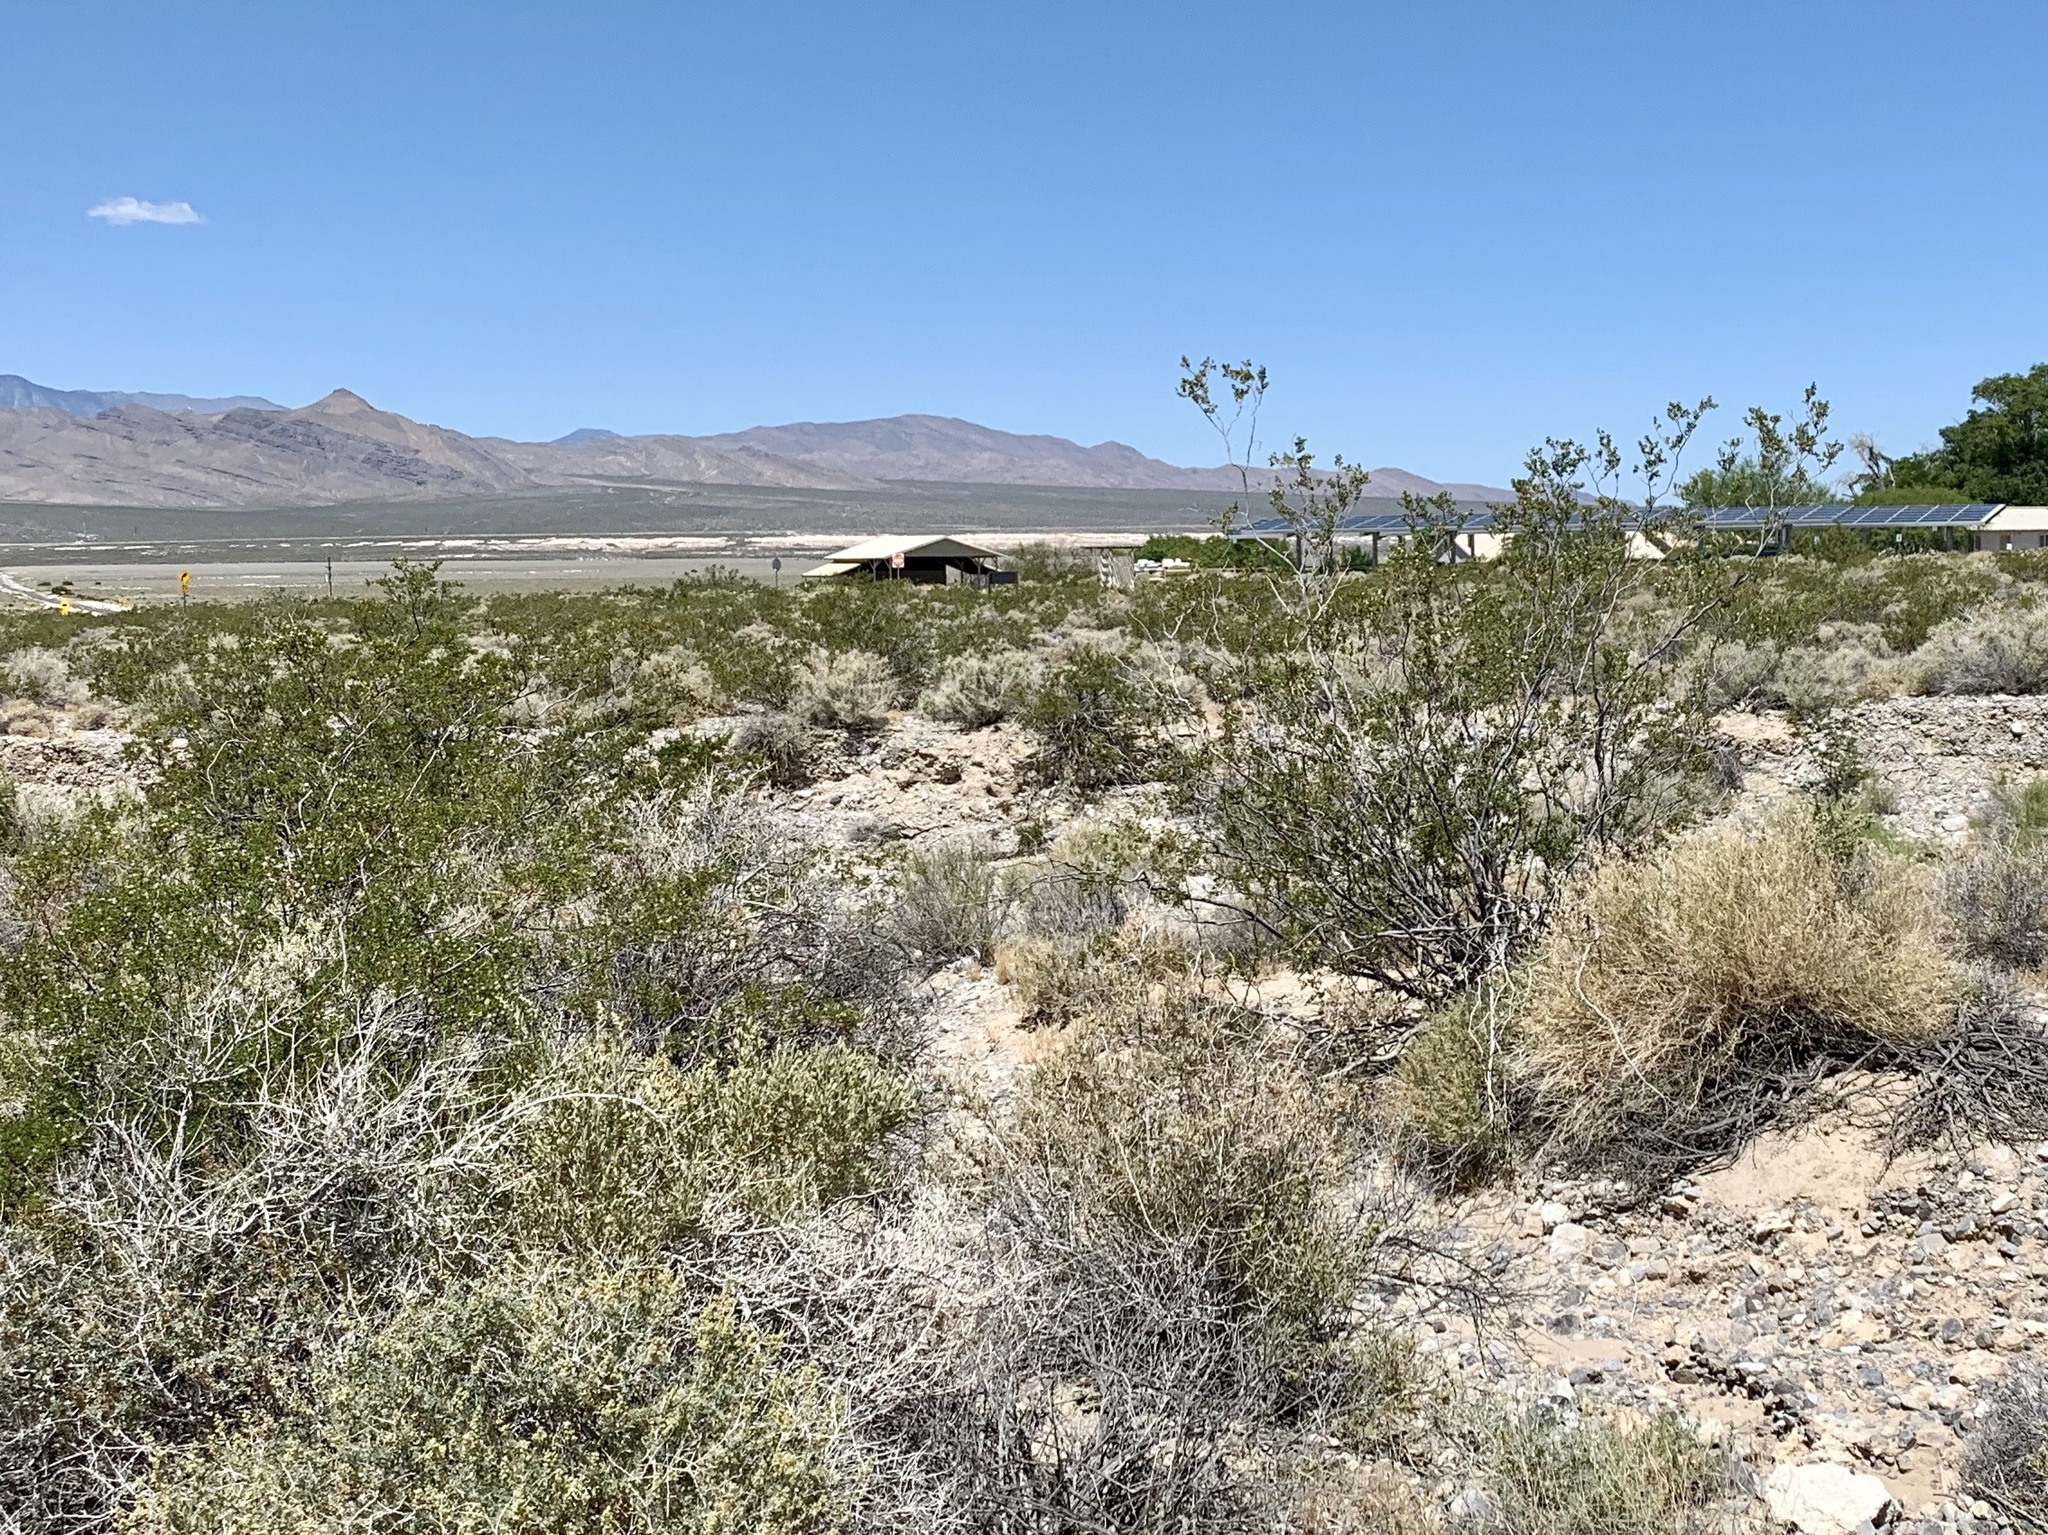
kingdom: Plantae
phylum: Tracheophyta
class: Magnoliopsida
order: Zygophyllales
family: Zygophyllaceae
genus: Larrea
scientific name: Larrea tridentata
